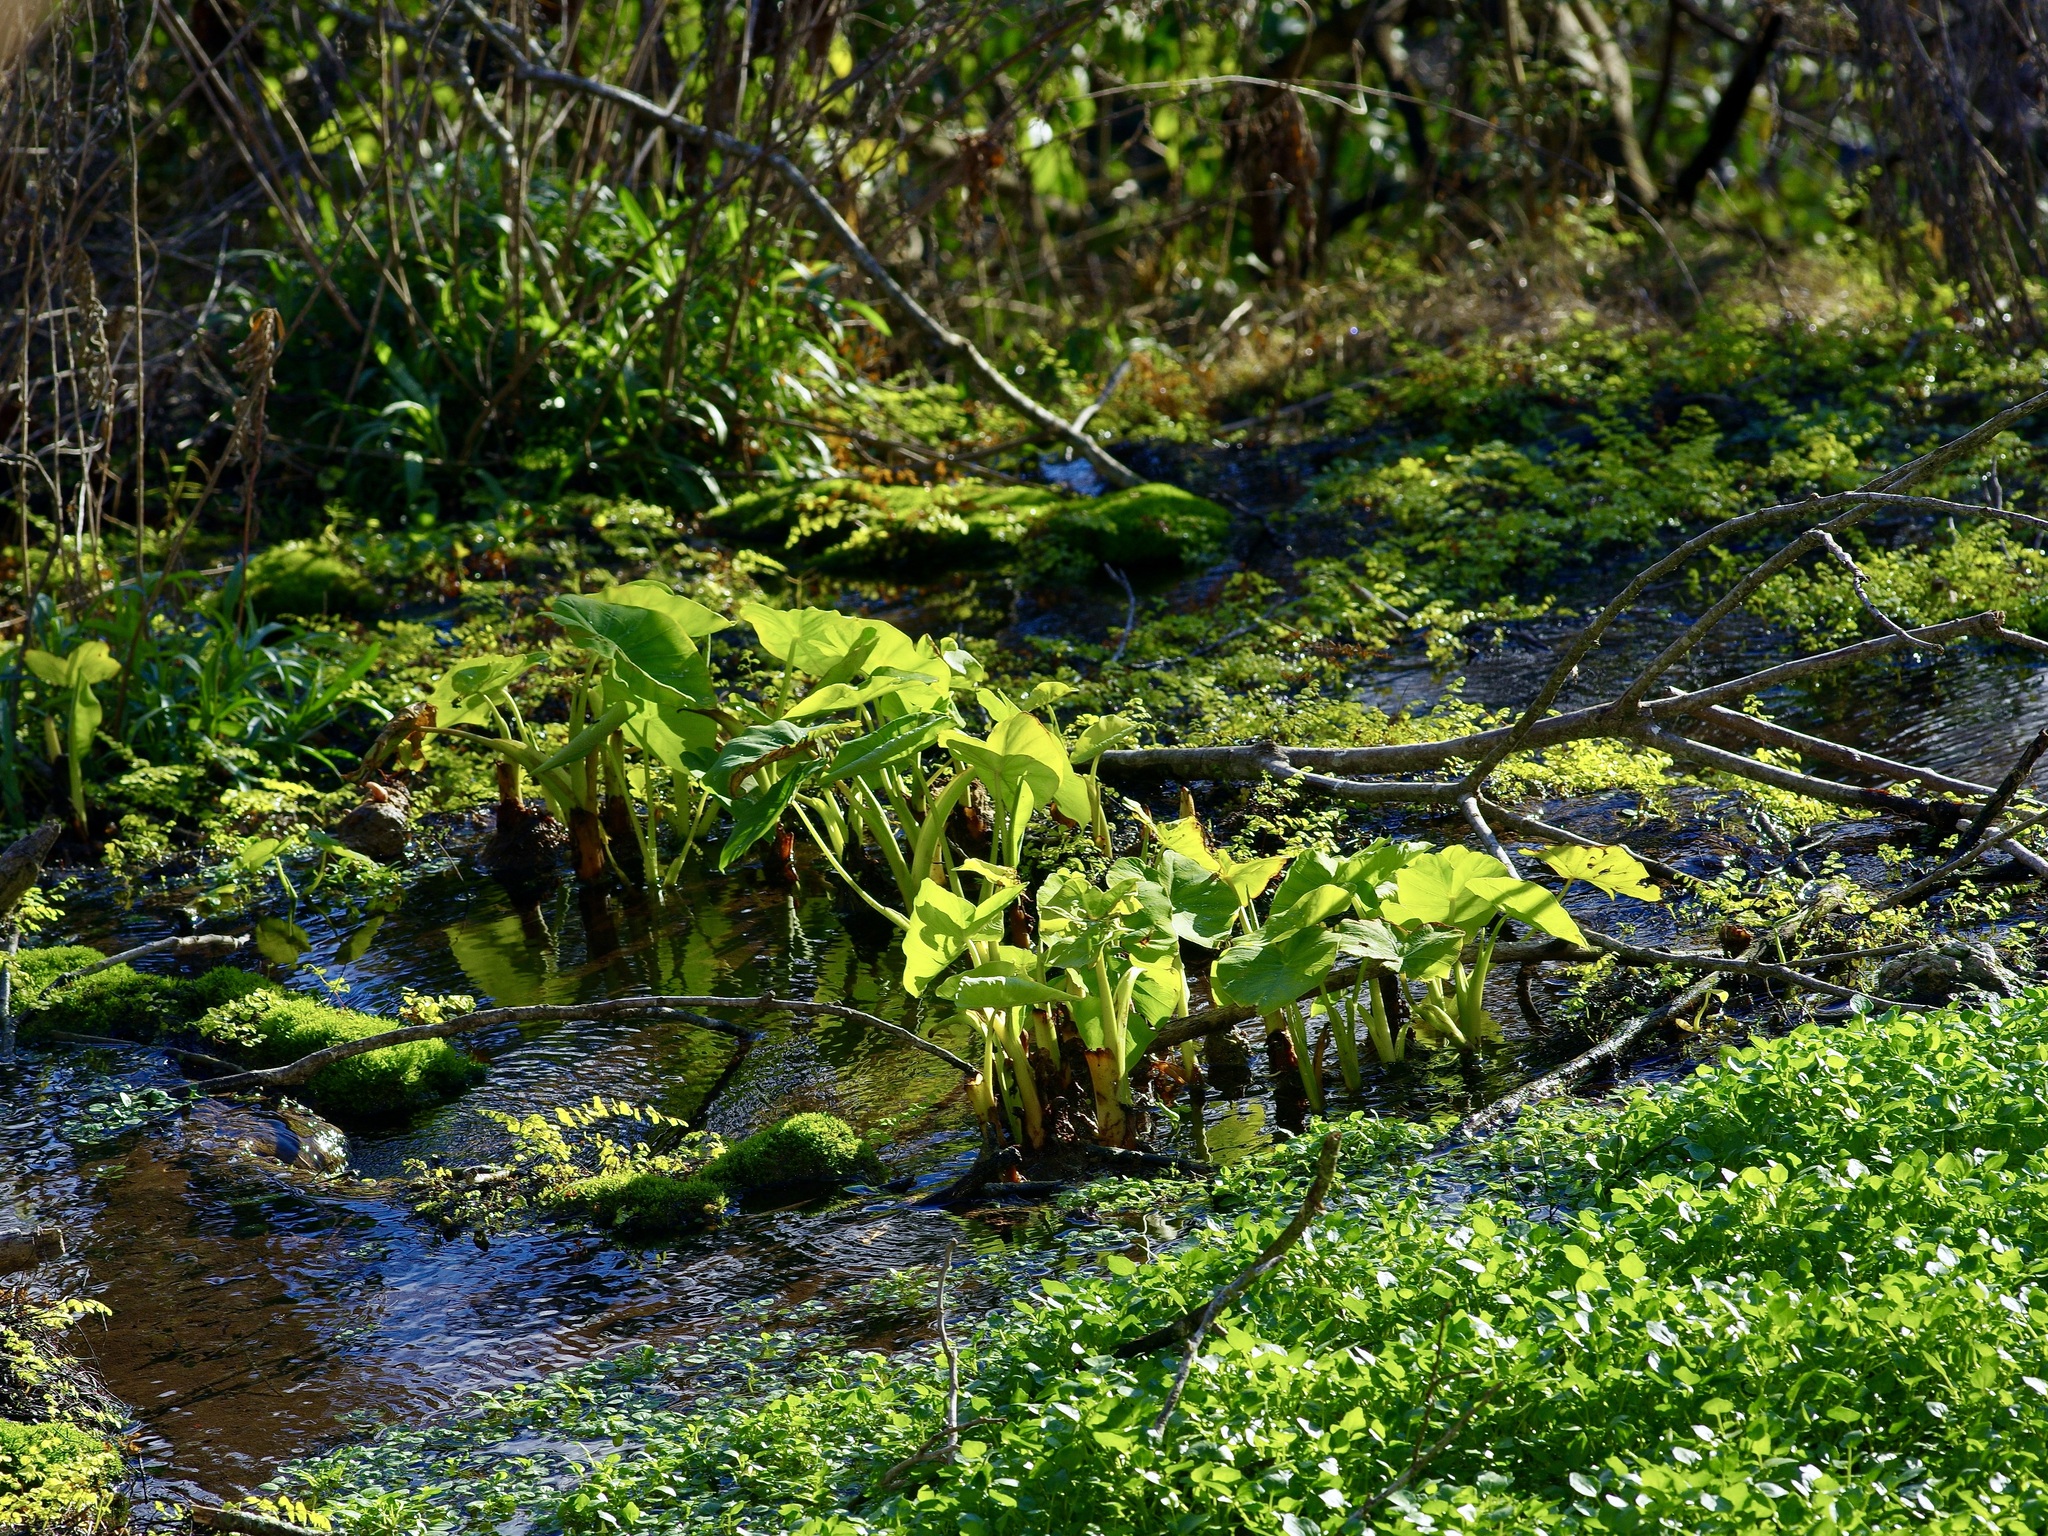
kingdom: Plantae
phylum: Tracheophyta
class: Liliopsida
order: Alismatales
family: Araceae
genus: Colocasia
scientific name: Colocasia esculenta
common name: Taro
